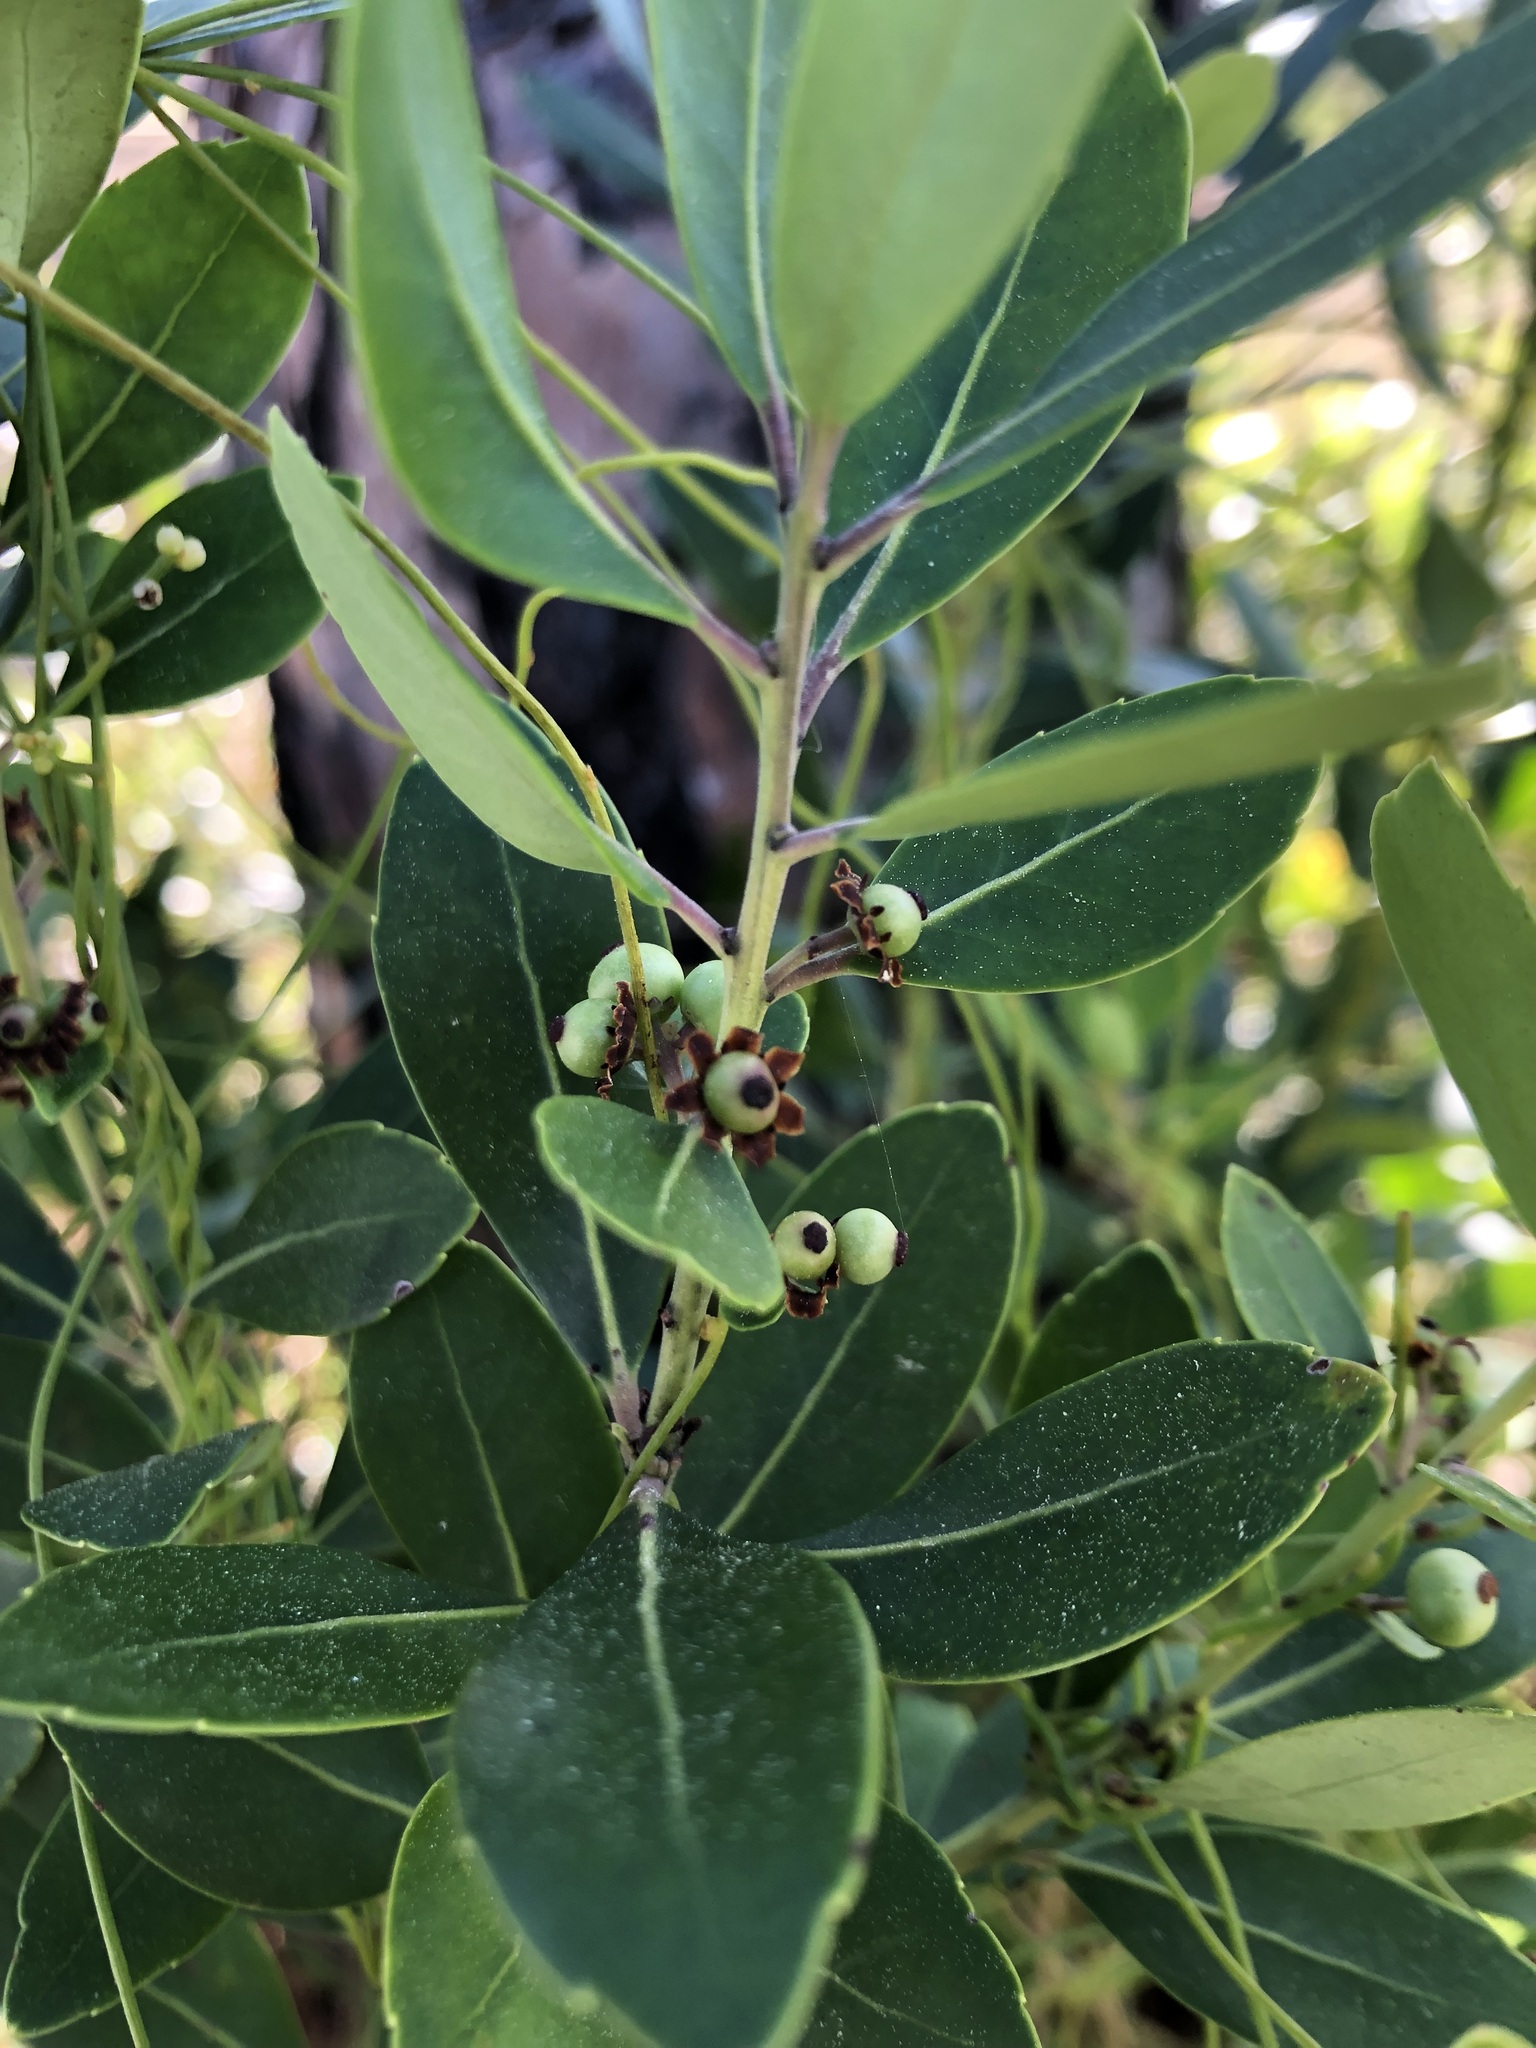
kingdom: Plantae
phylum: Tracheophyta
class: Magnoliopsida
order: Aquifoliales
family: Aquifoliaceae
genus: Ilex
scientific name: Ilex glabra
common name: Bitter gallberry
